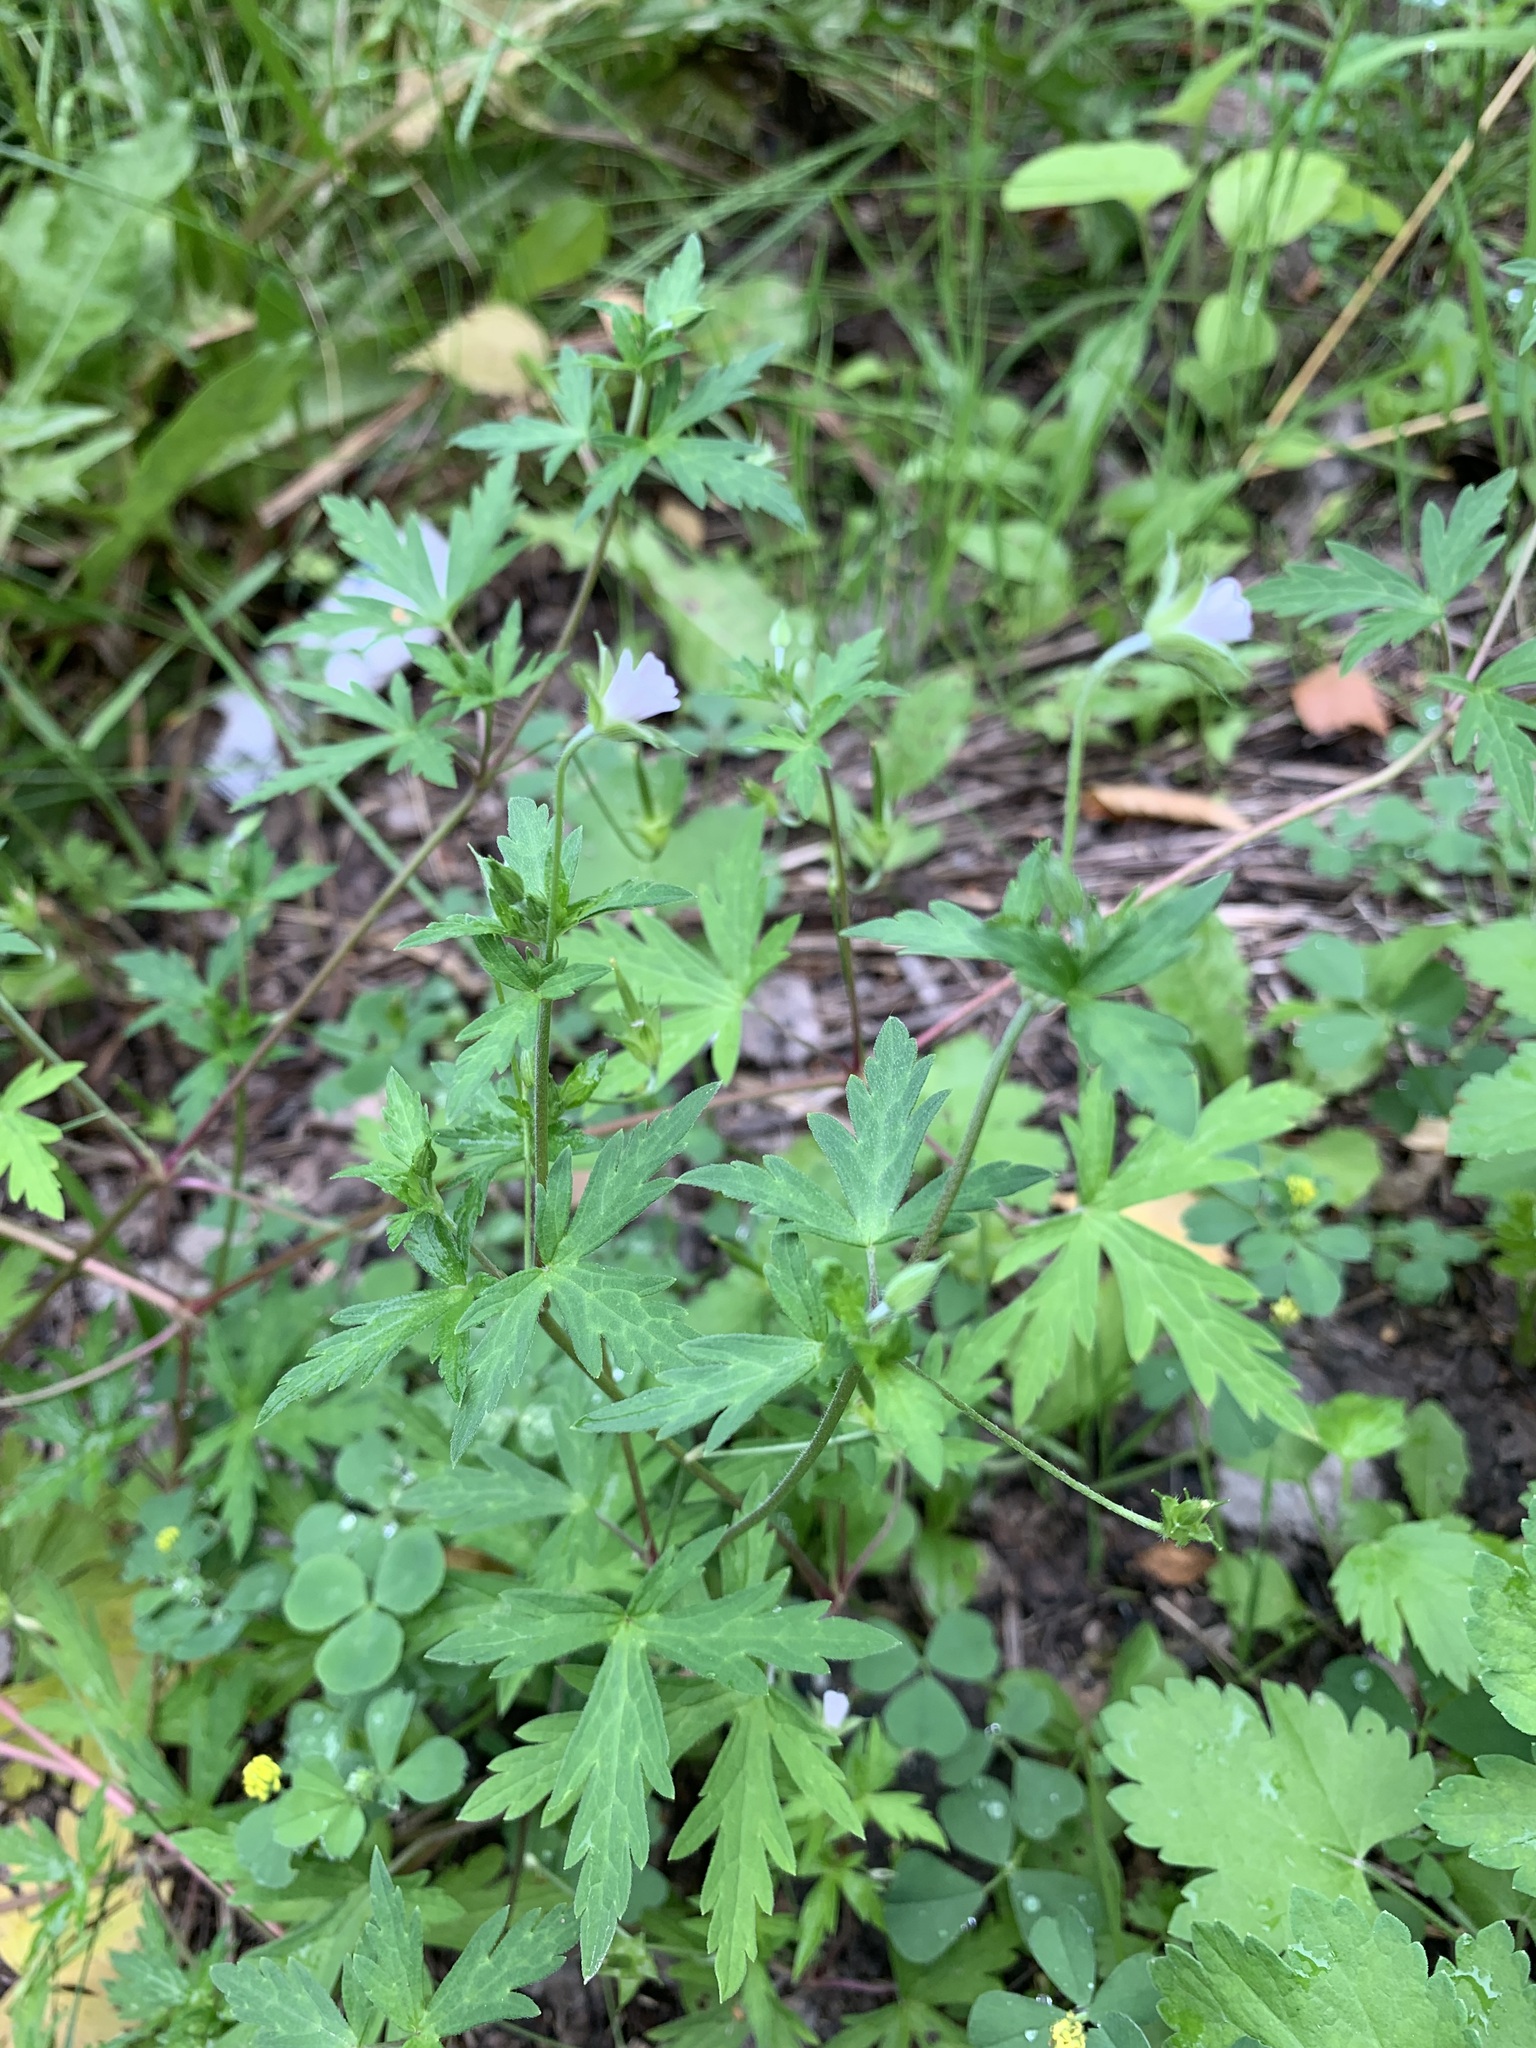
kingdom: Plantae
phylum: Tracheophyta
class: Magnoliopsida
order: Geraniales
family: Geraniaceae
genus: Geranium
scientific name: Geranium sibiricum
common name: Siberian crane's-bill
